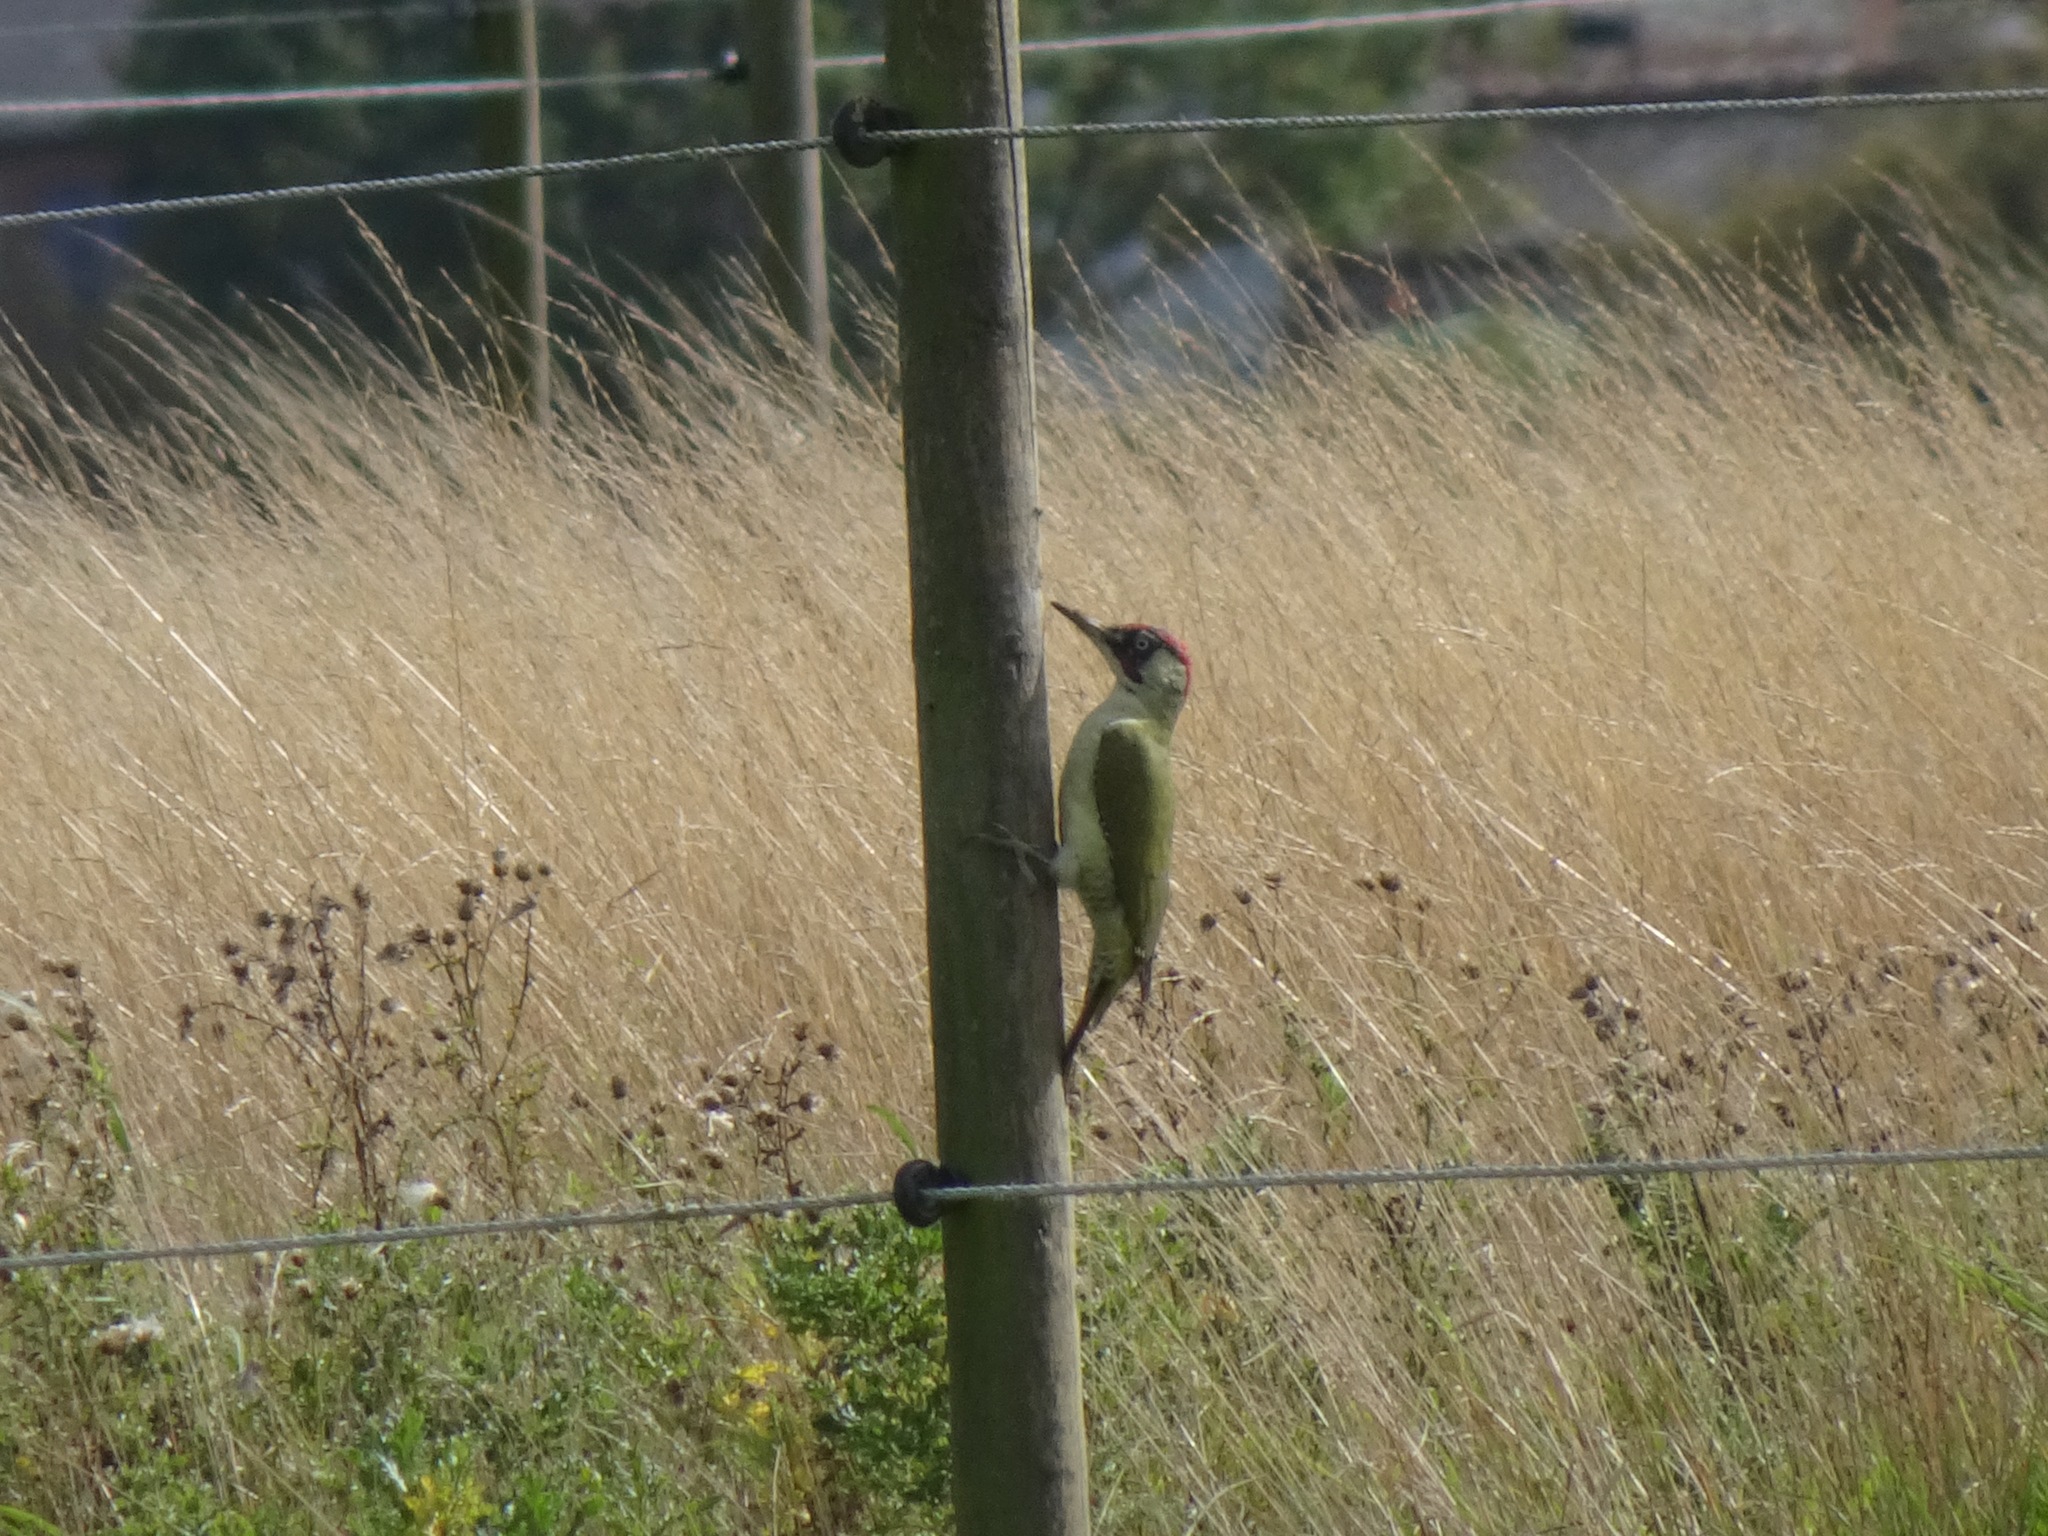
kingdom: Animalia
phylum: Chordata
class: Aves
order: Piciformes
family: Picidae
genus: Picus
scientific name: Picus viridis
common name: European green woodpecker
